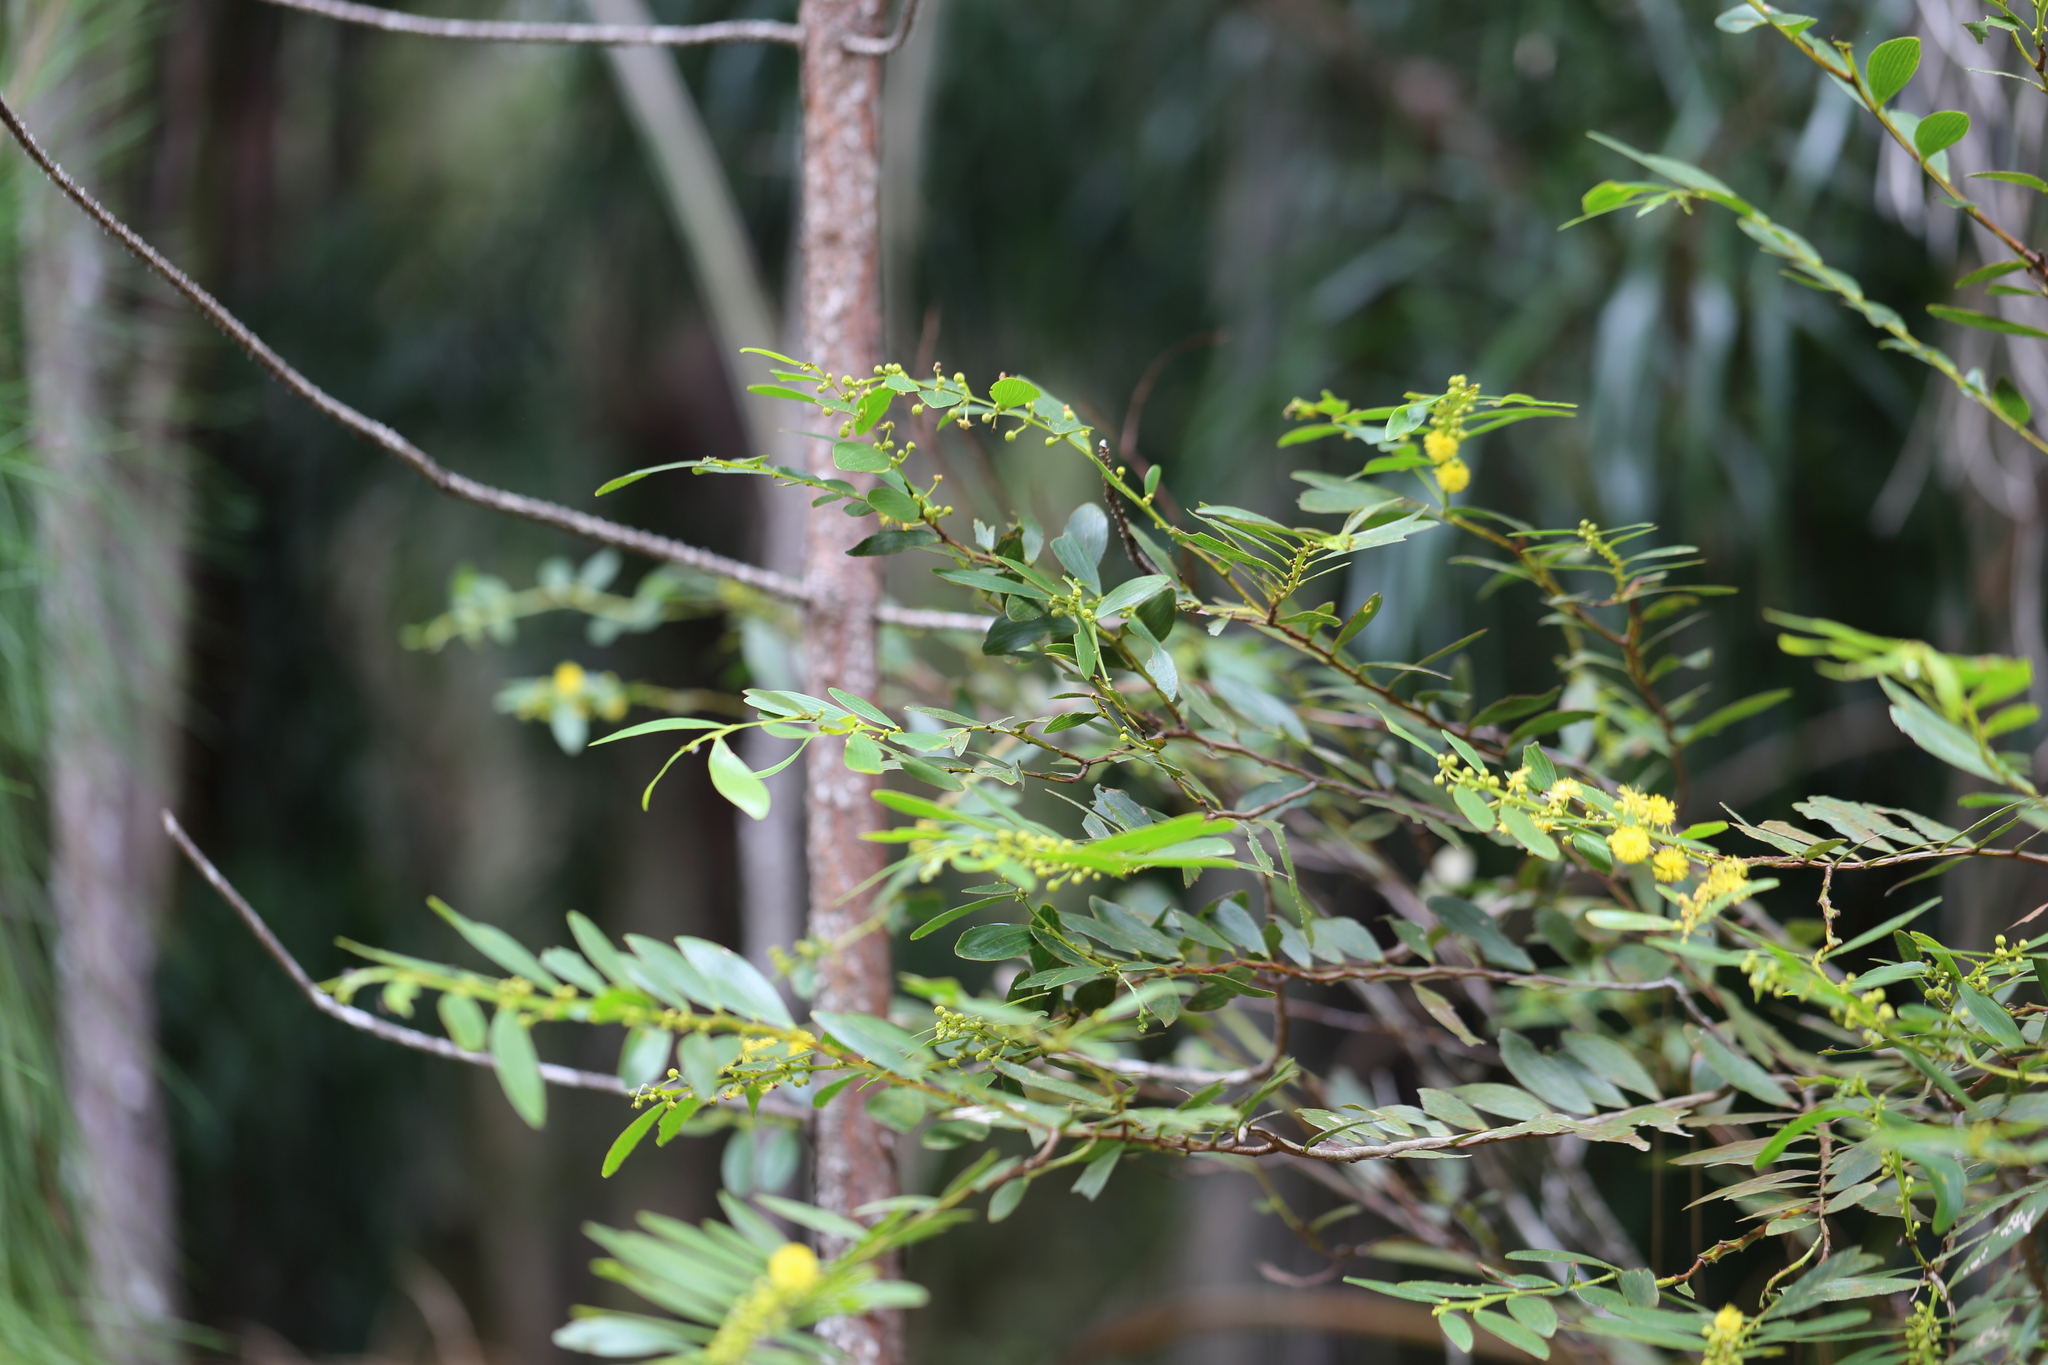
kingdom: Plantae
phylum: Tracheophyta
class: Magnoliopsida
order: Fabales
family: Fabaceae
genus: Acacia
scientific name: Acacia complanata
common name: Flat-stemmed wattle
